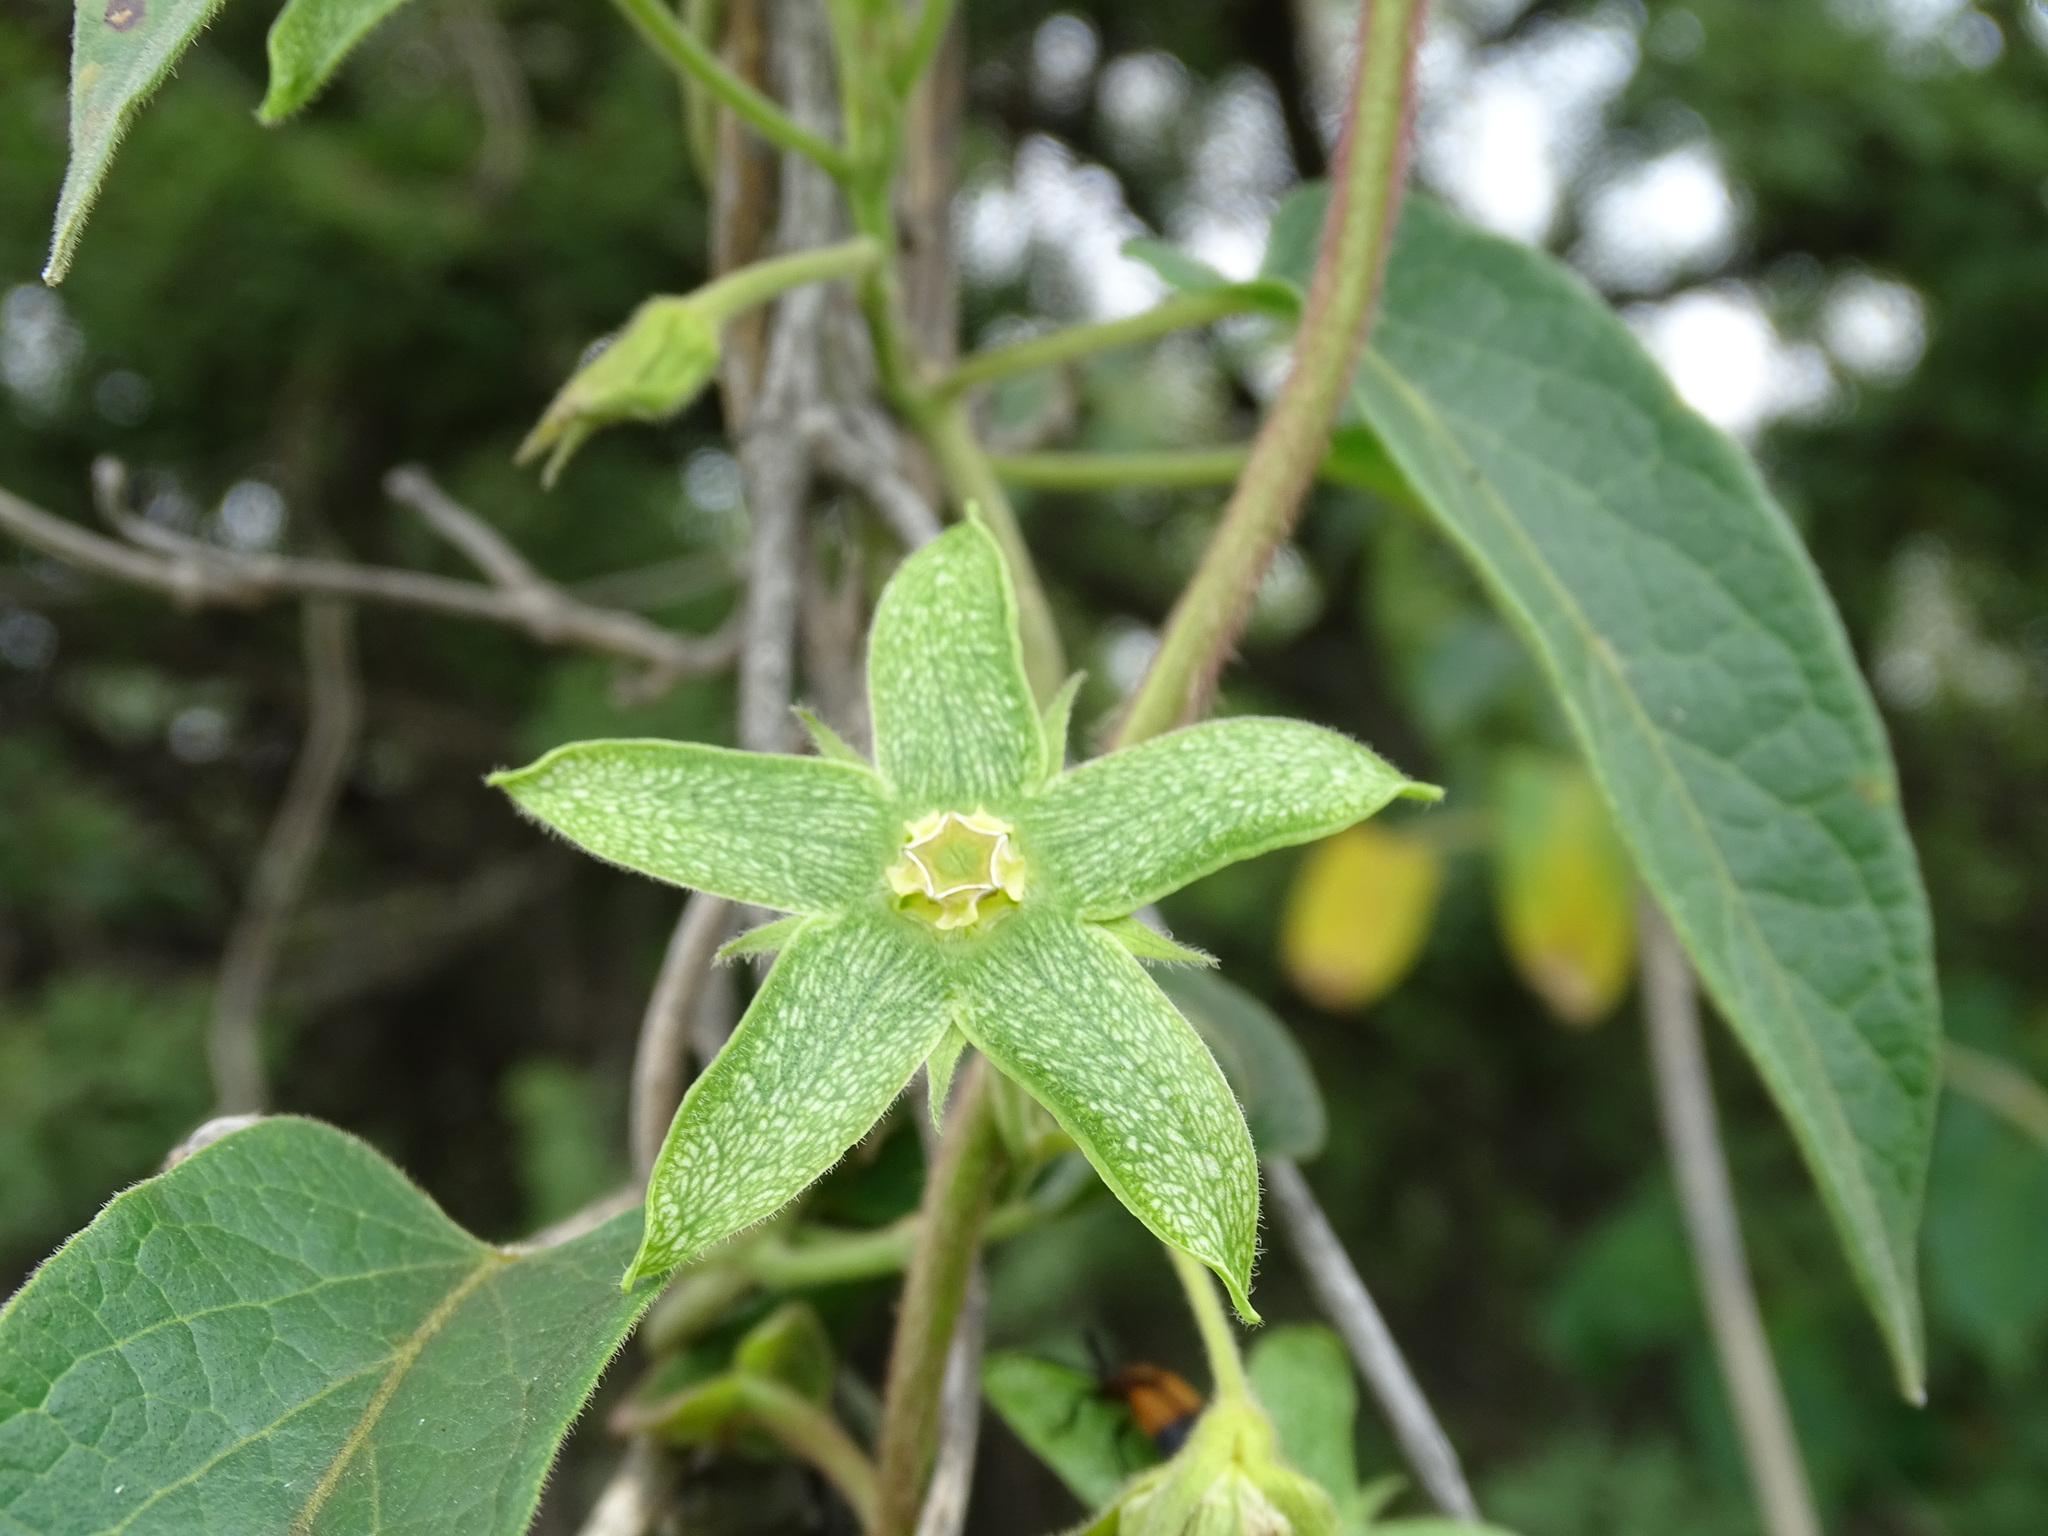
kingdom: Plantae
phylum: Tracheophyta
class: Magnoliopsida
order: Gentianales
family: Apocynaceae
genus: Gonolobus
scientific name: Gonolobus grandiflorus
